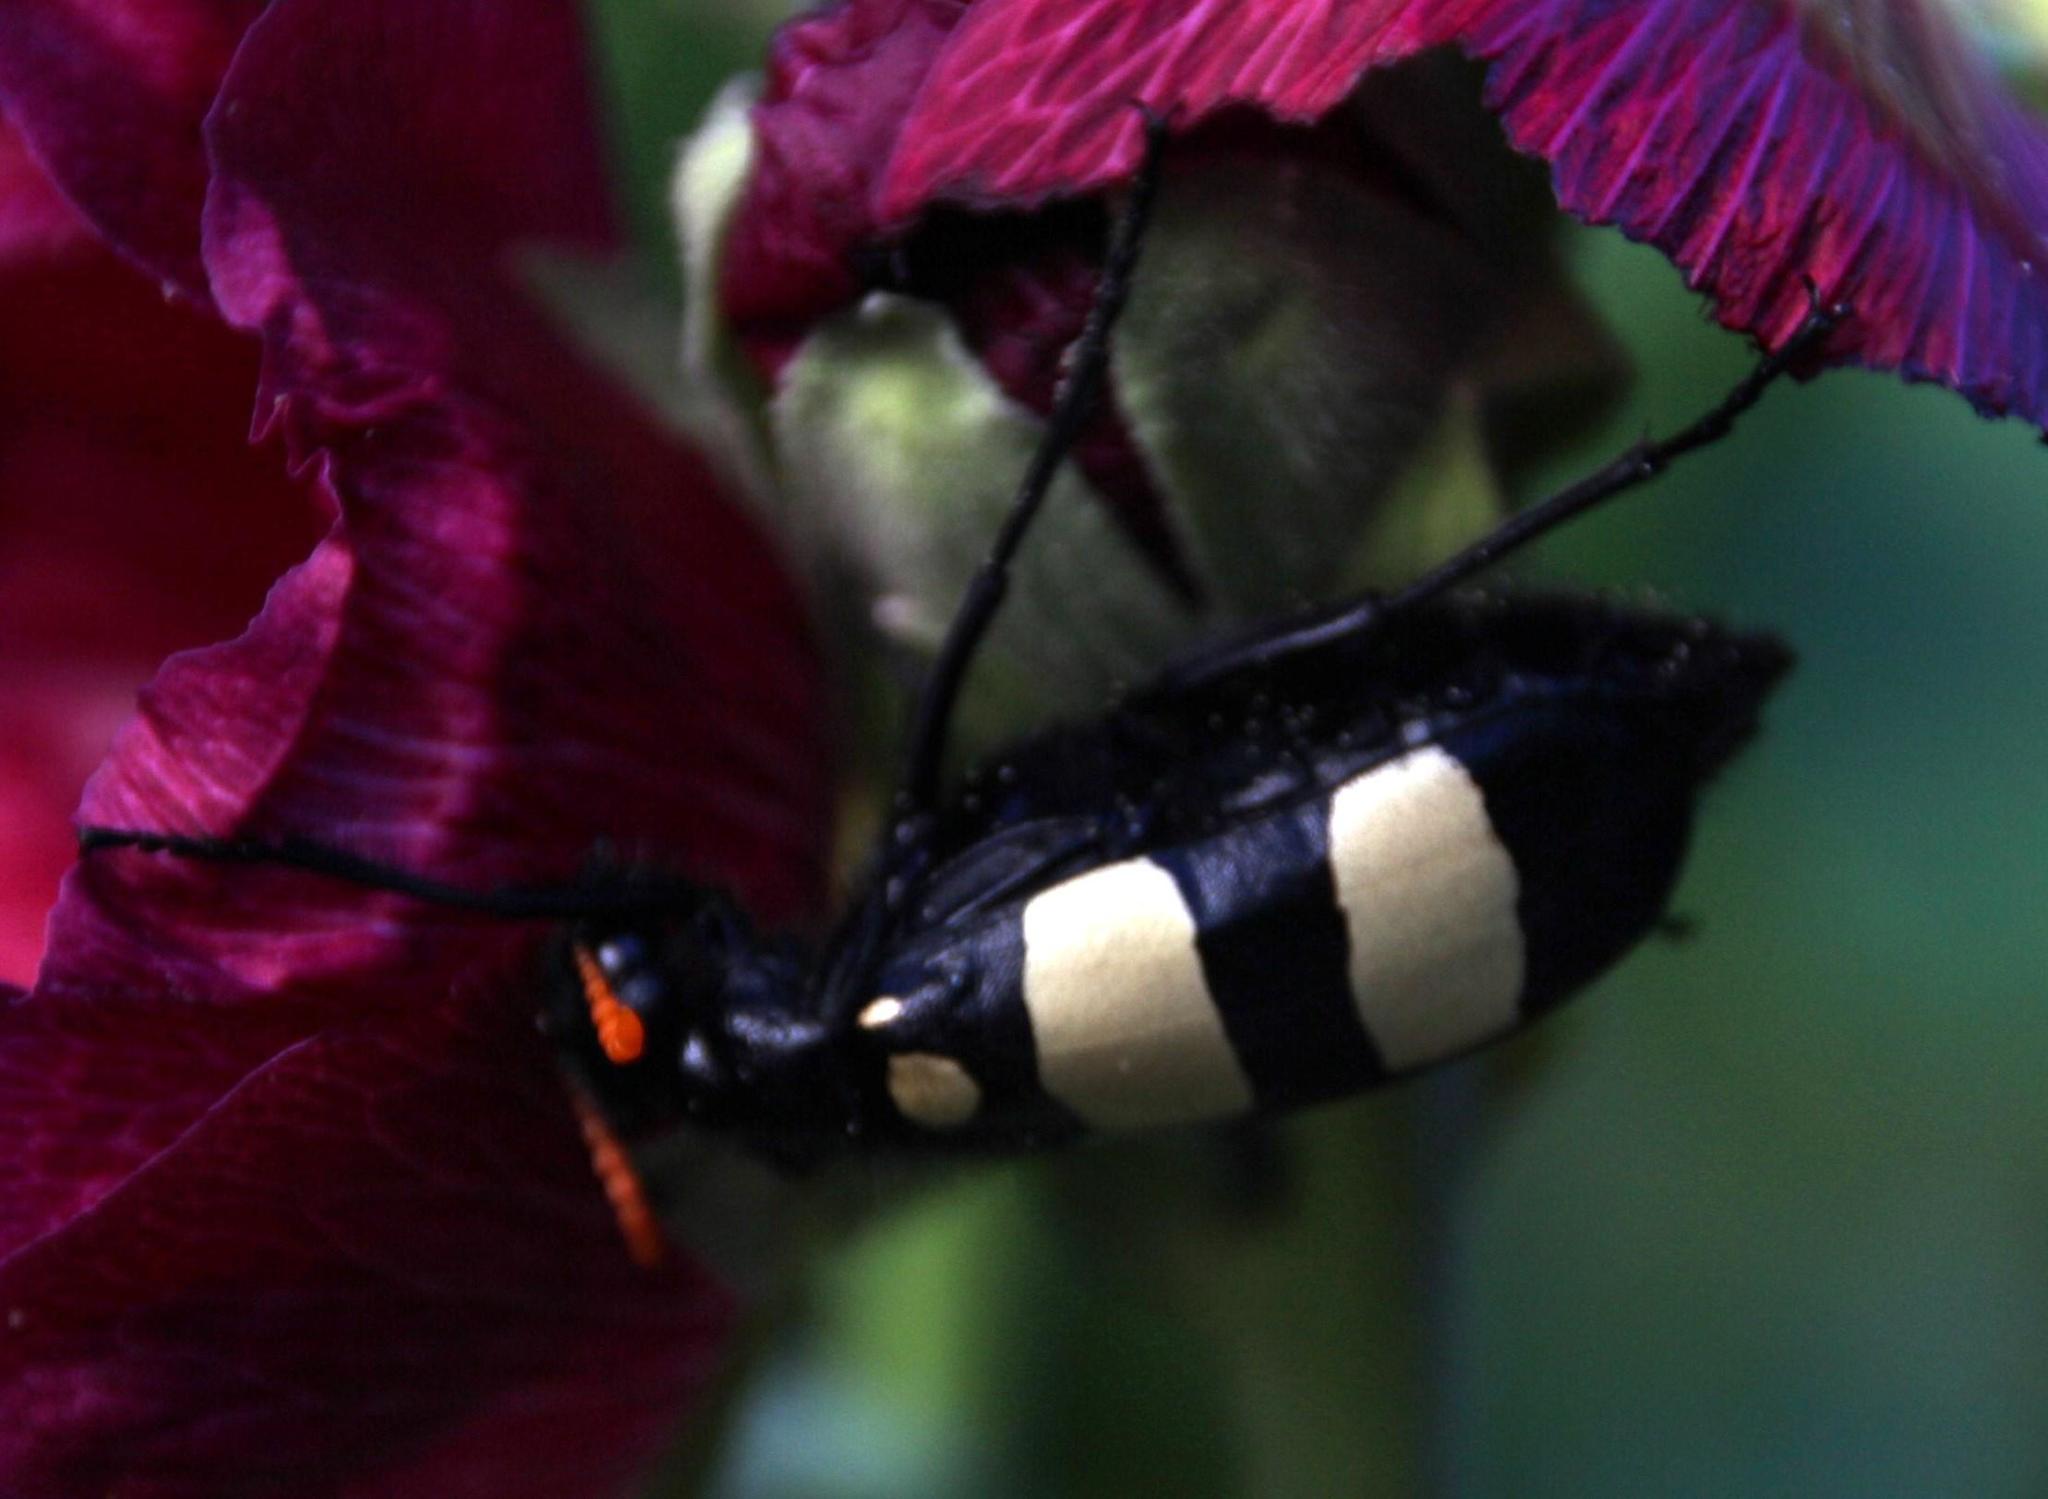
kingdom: Animalia
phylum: Arthropoda
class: Insecta
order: Coleoptera
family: Meloidae
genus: Hycleus
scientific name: Hycleus
